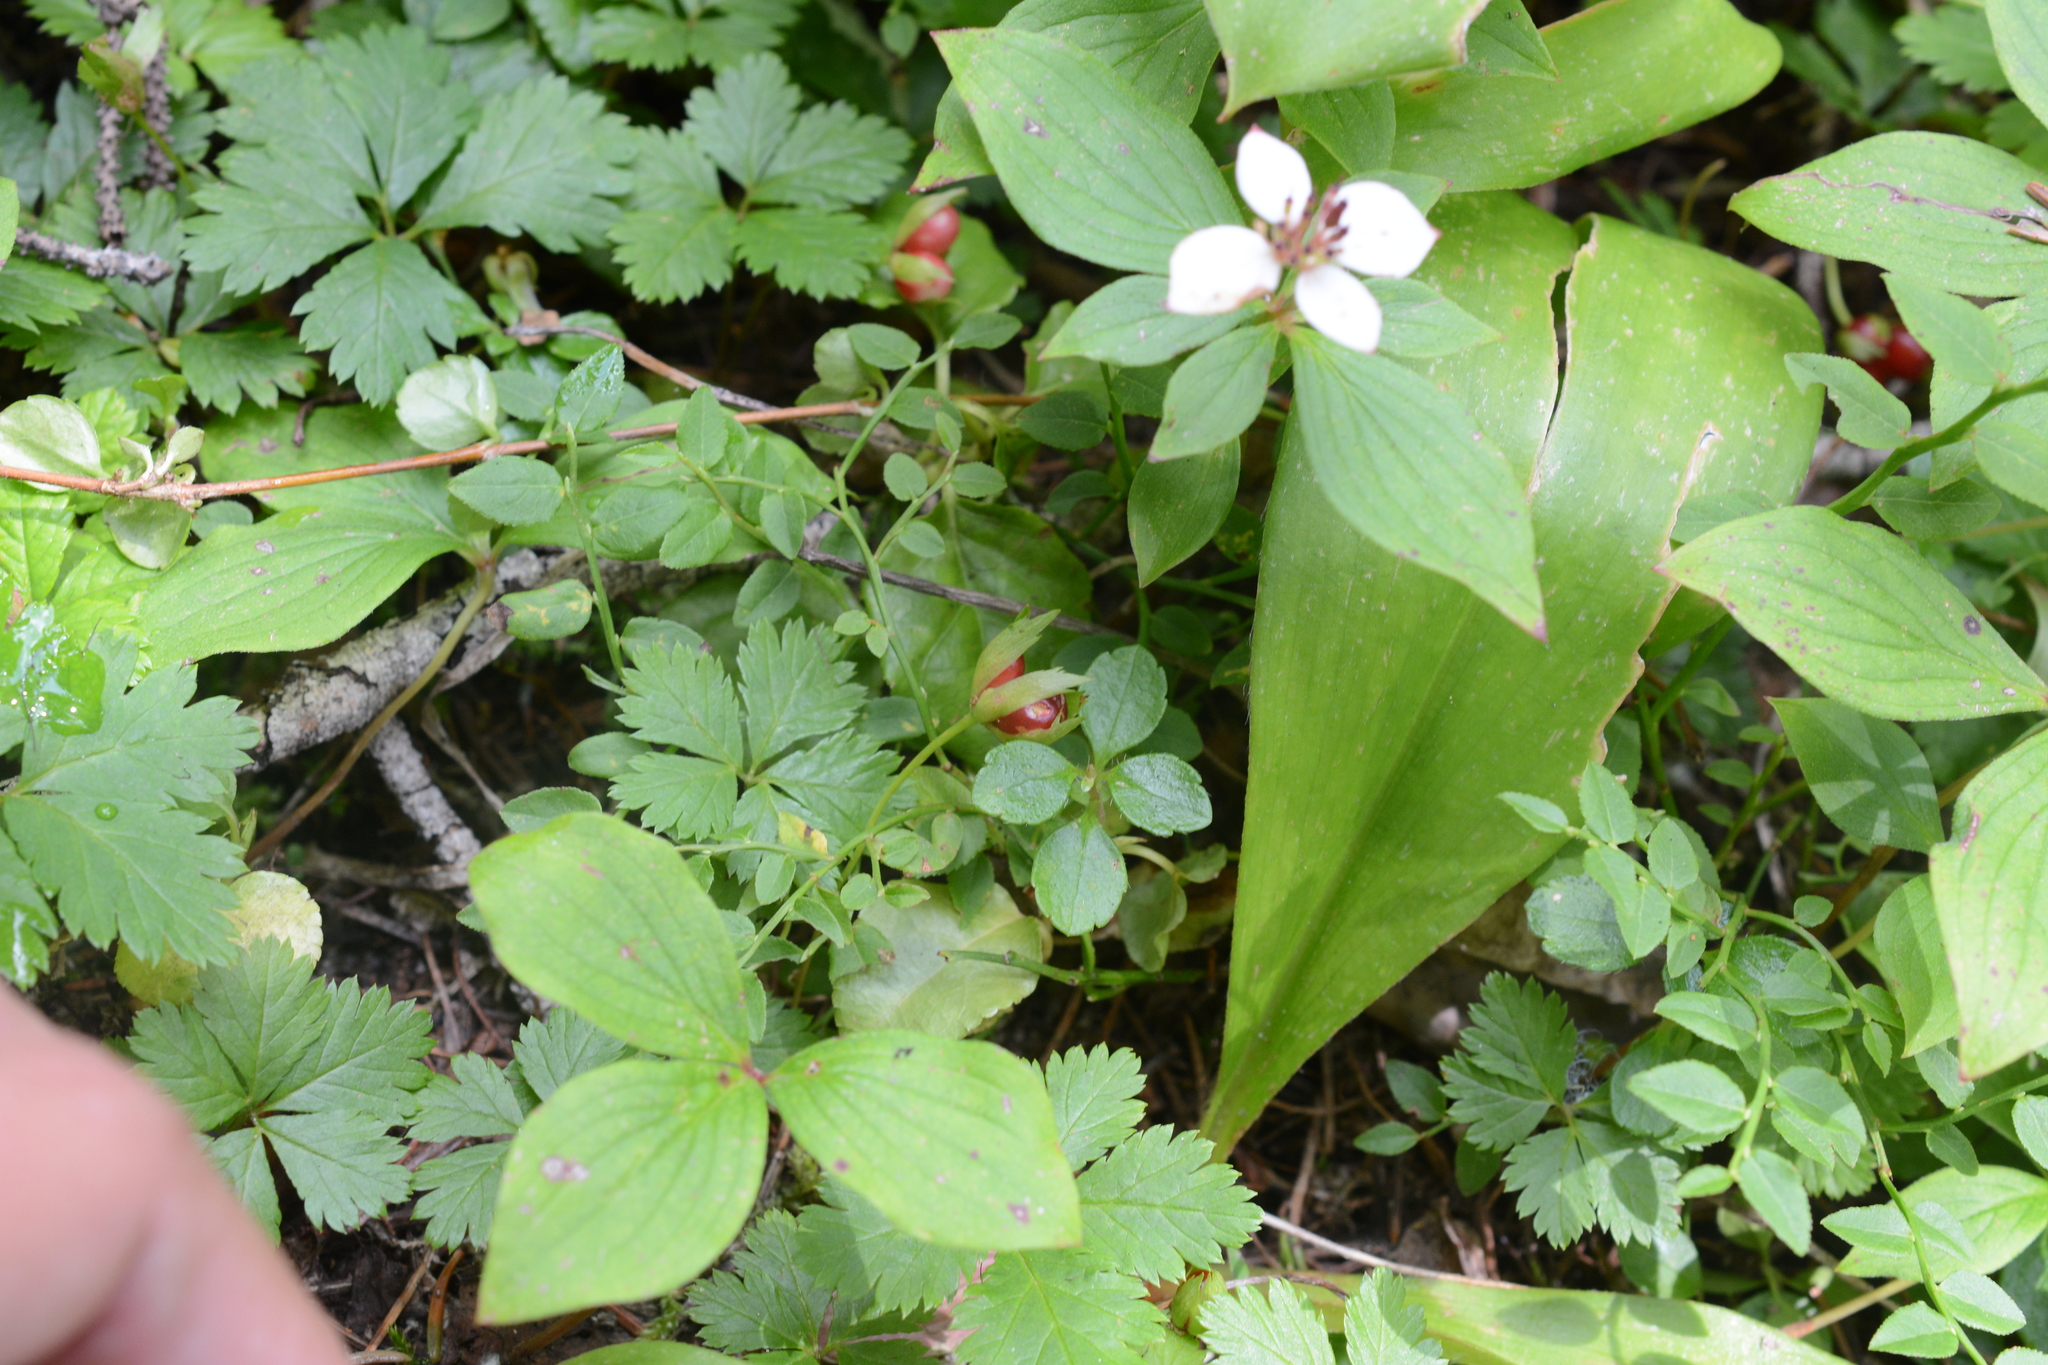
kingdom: Plantae
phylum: Tracheophyta
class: Magnoliopsida
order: Rosales
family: Rosaceae
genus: Rubus
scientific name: Rubus pedatus
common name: Creeping raspberry
